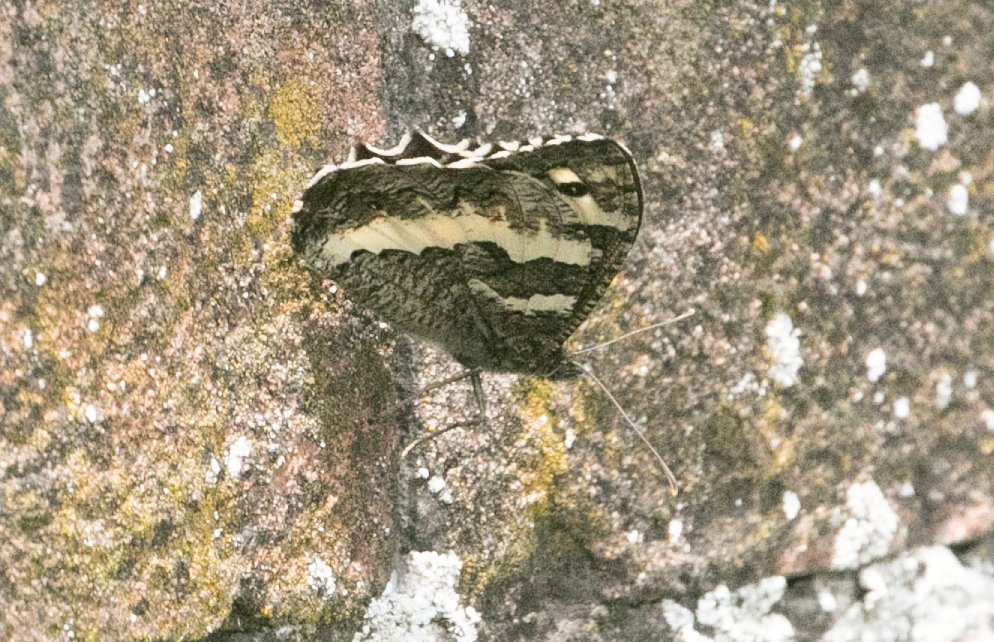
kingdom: Animalia
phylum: Arthropoda
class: Insecta
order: Lepidoptera
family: Lycaenidae
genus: Loweia
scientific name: Loweia tityrus
